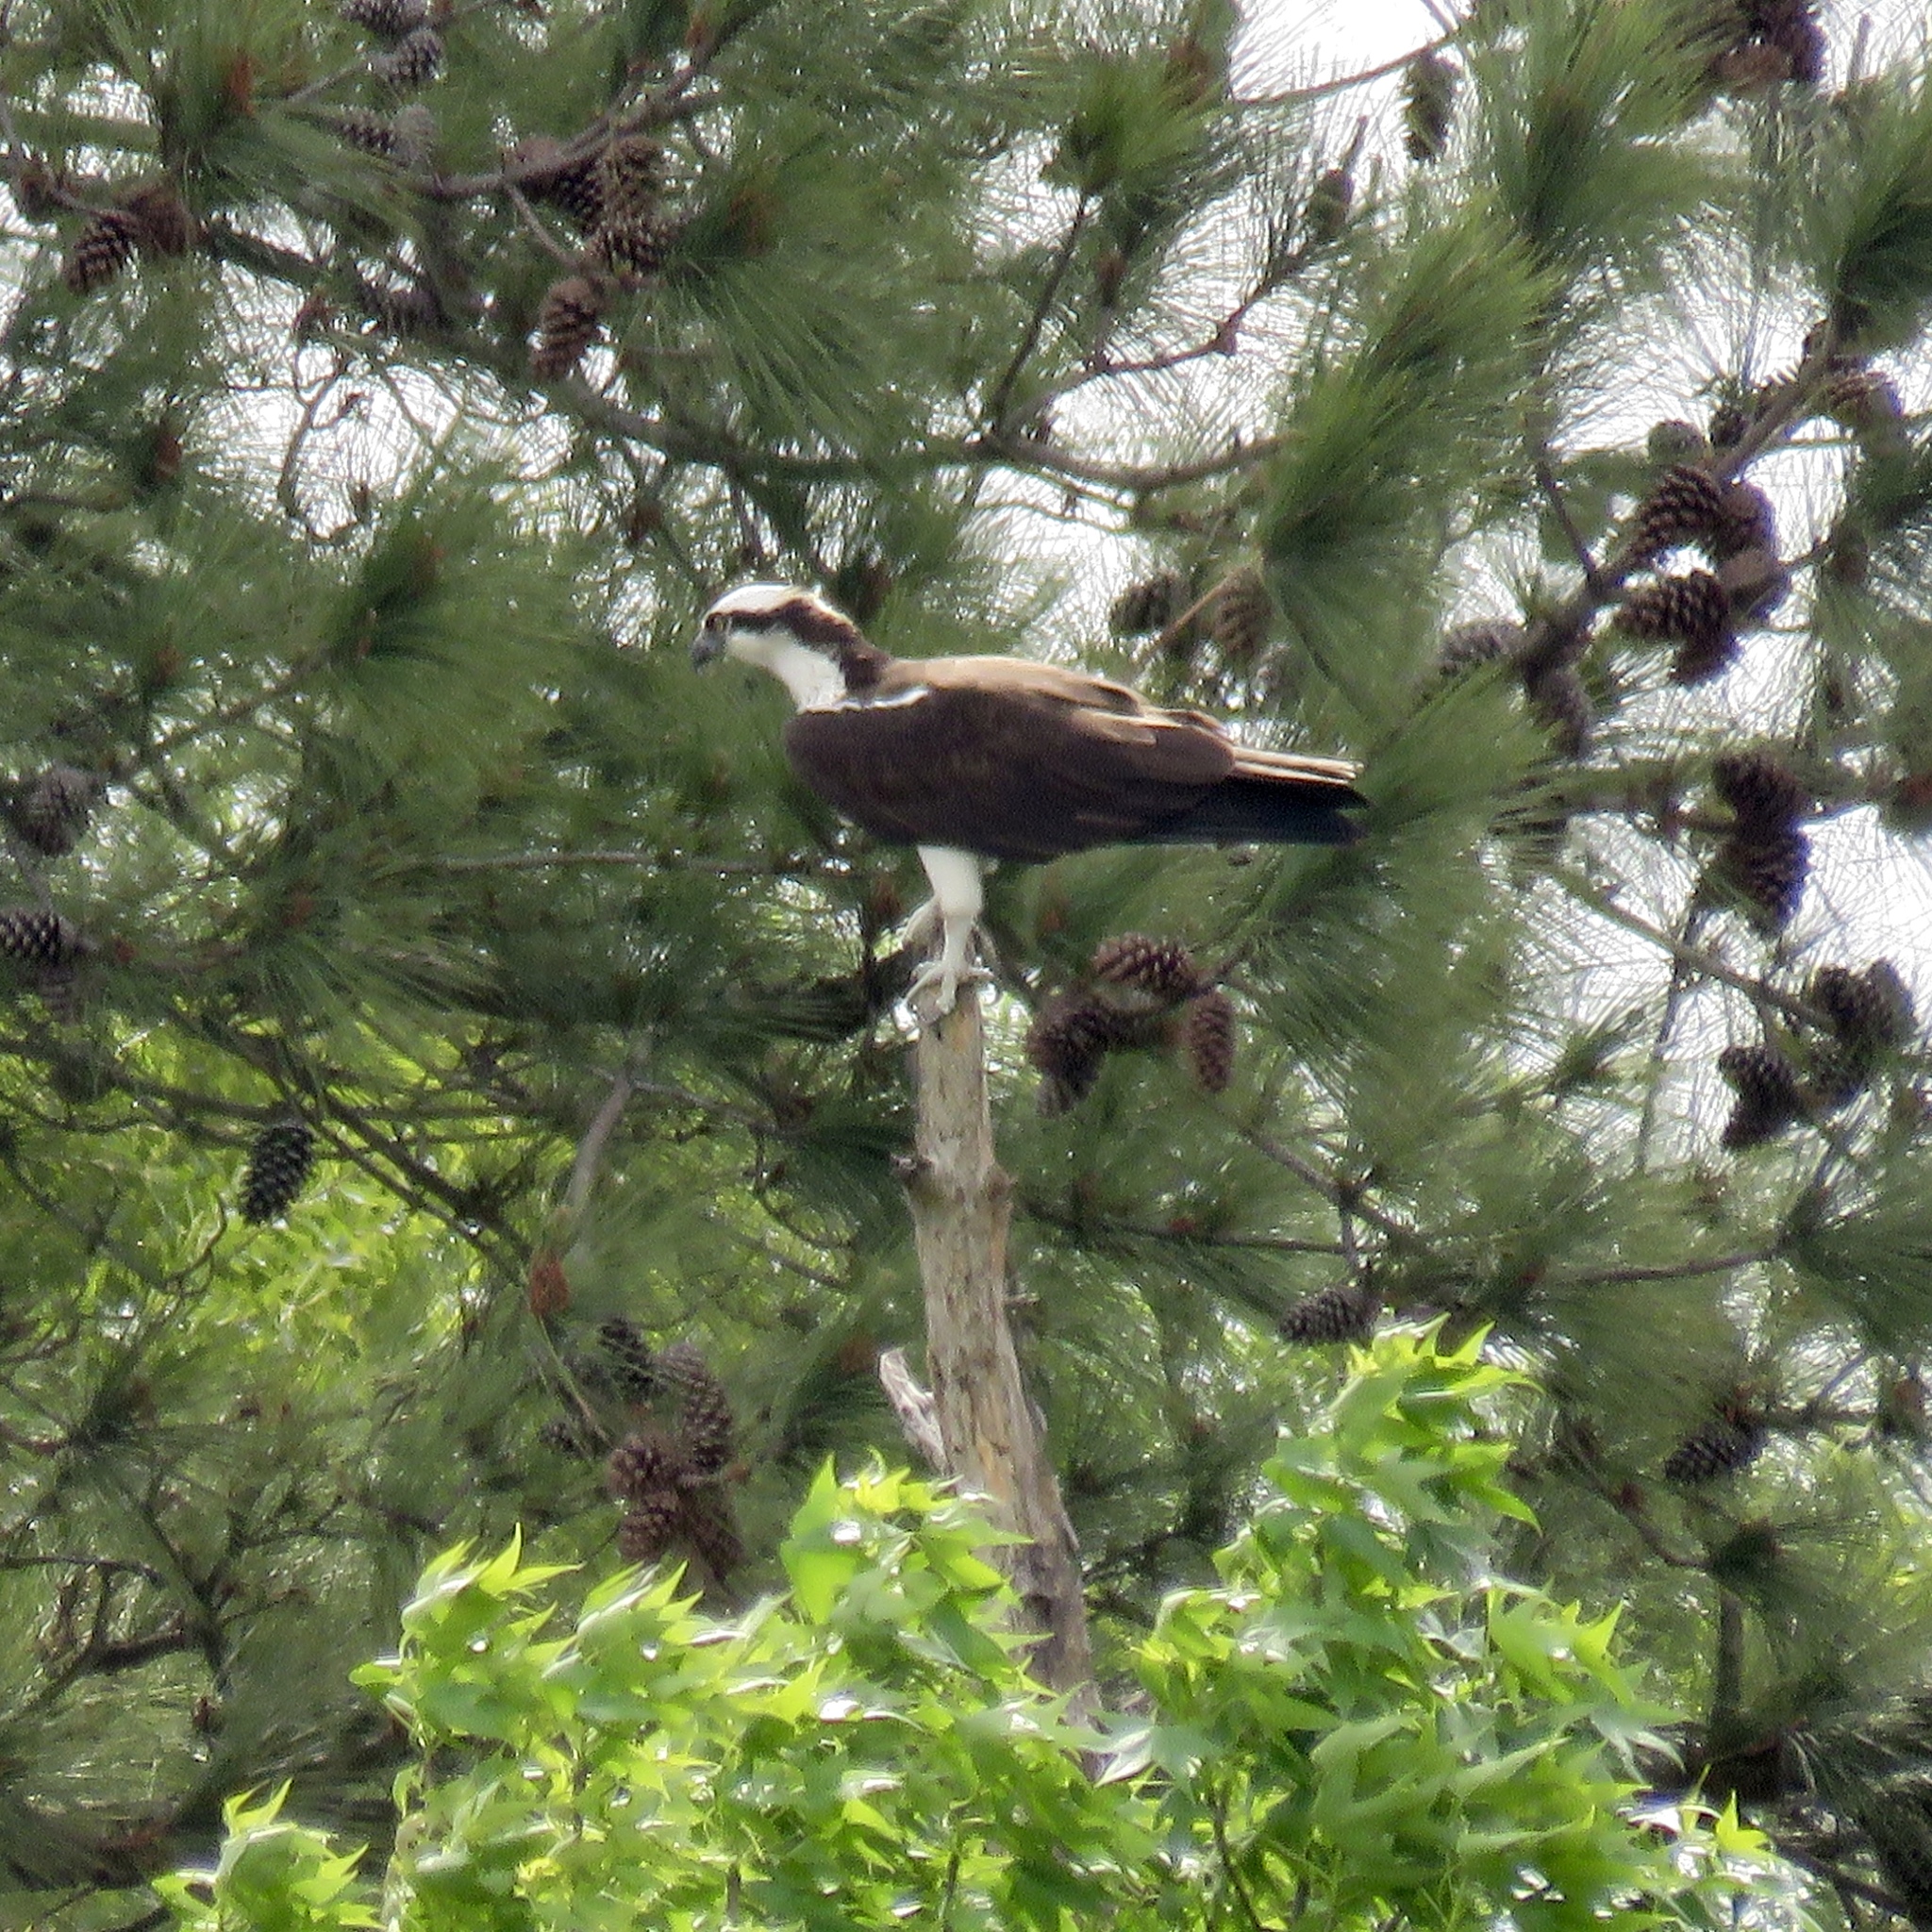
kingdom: Animalia
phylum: Chordata
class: Aves
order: Accipitriformes
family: Pandionidae
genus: Pandion
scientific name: Pandion haliaetus
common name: Osprey
